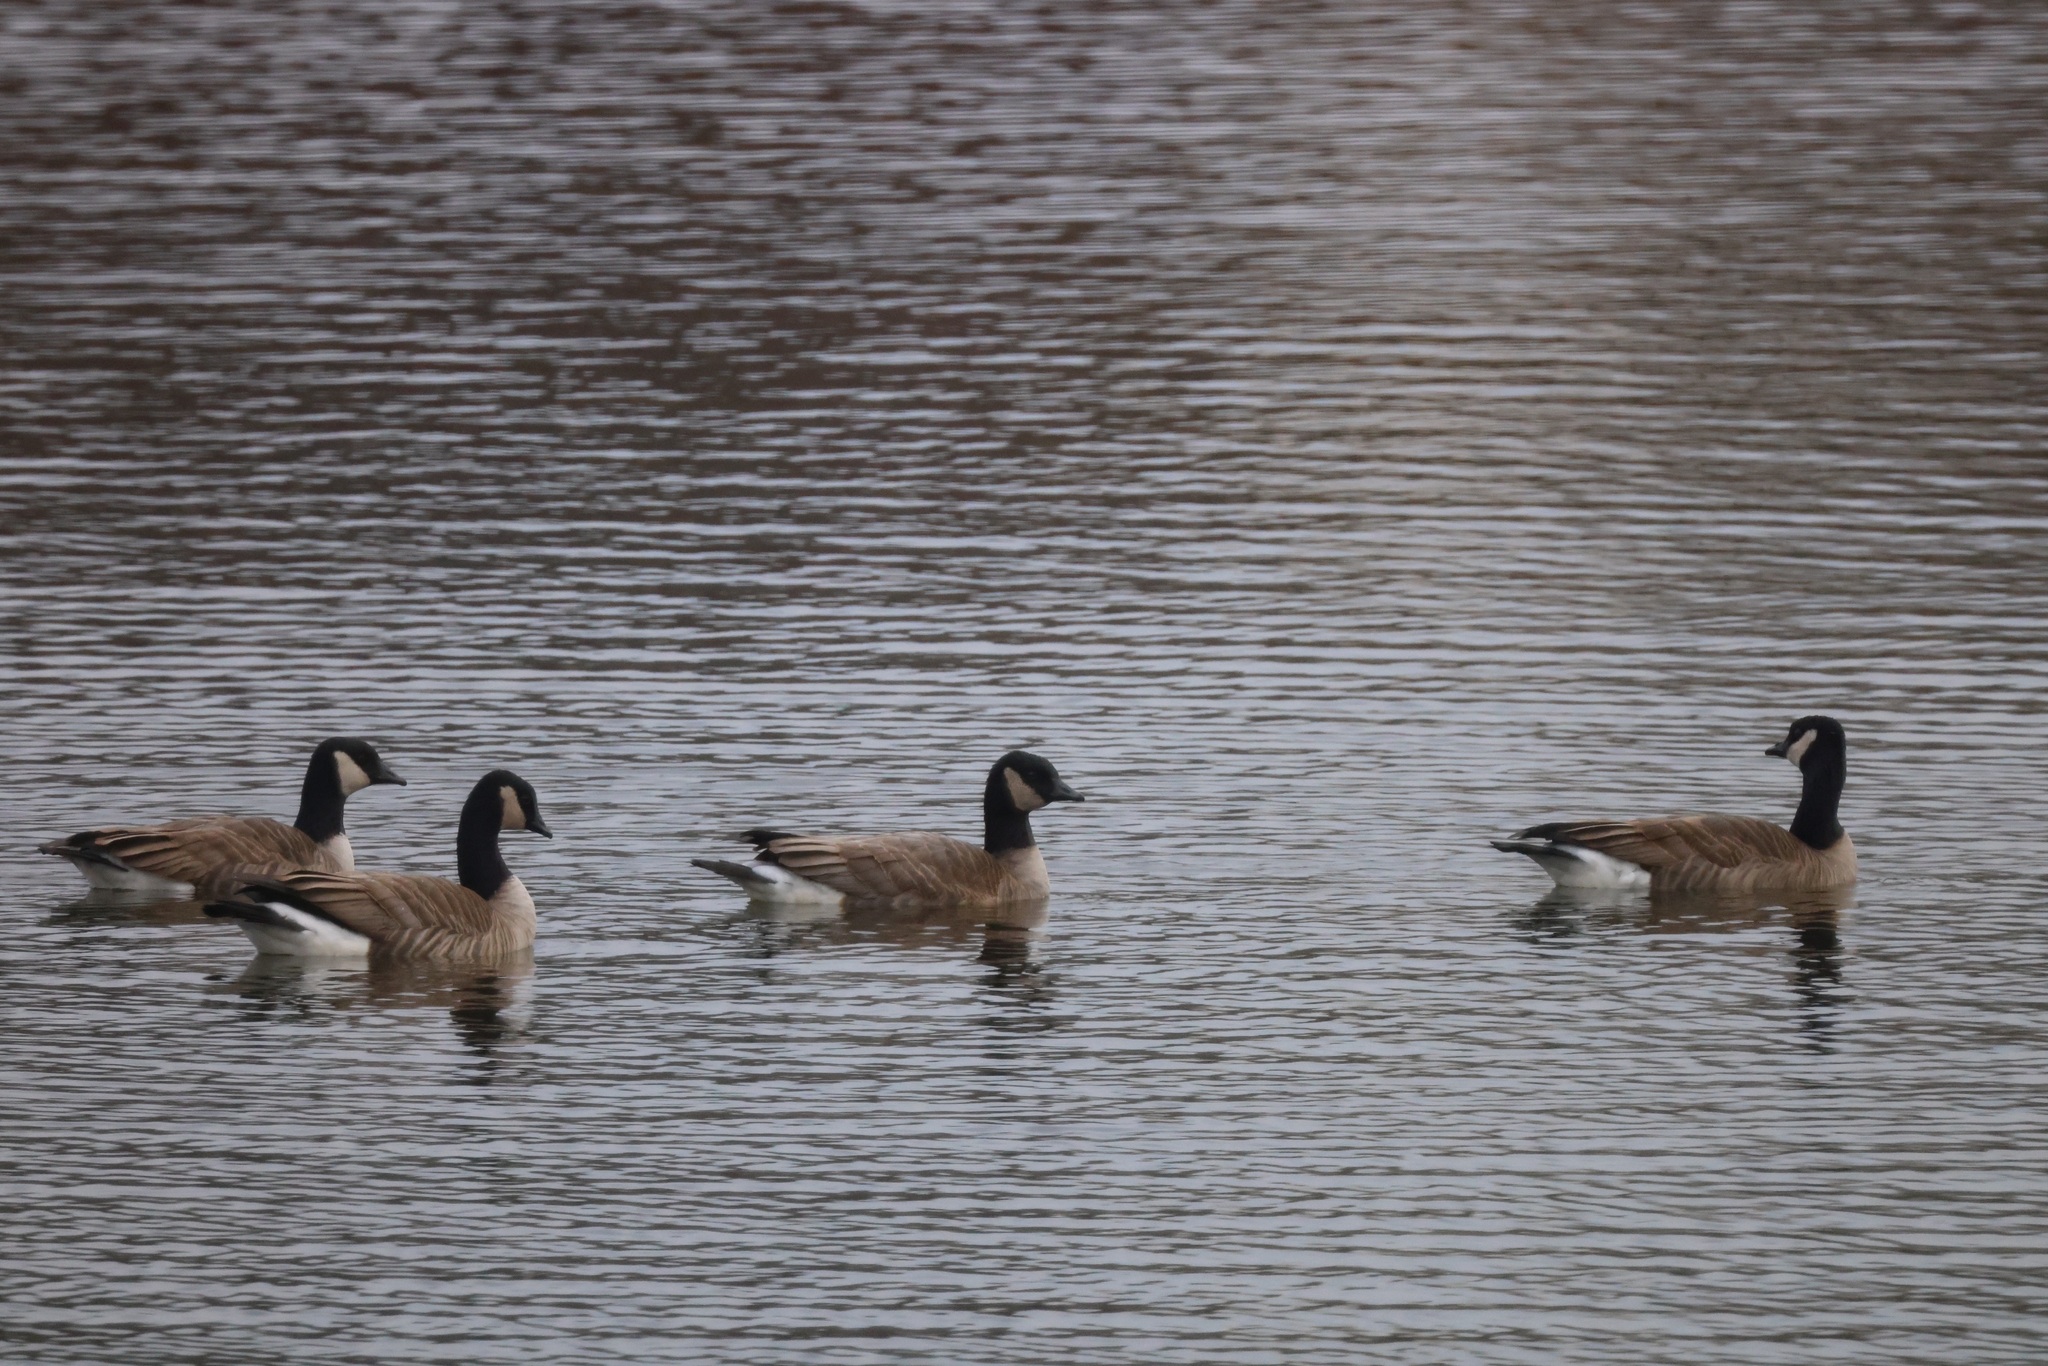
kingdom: Animalia
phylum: Chordata
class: Aves
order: Anseriformes
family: Anatidae
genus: Branta
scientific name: Branta hutchinsii
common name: Cackling goose
